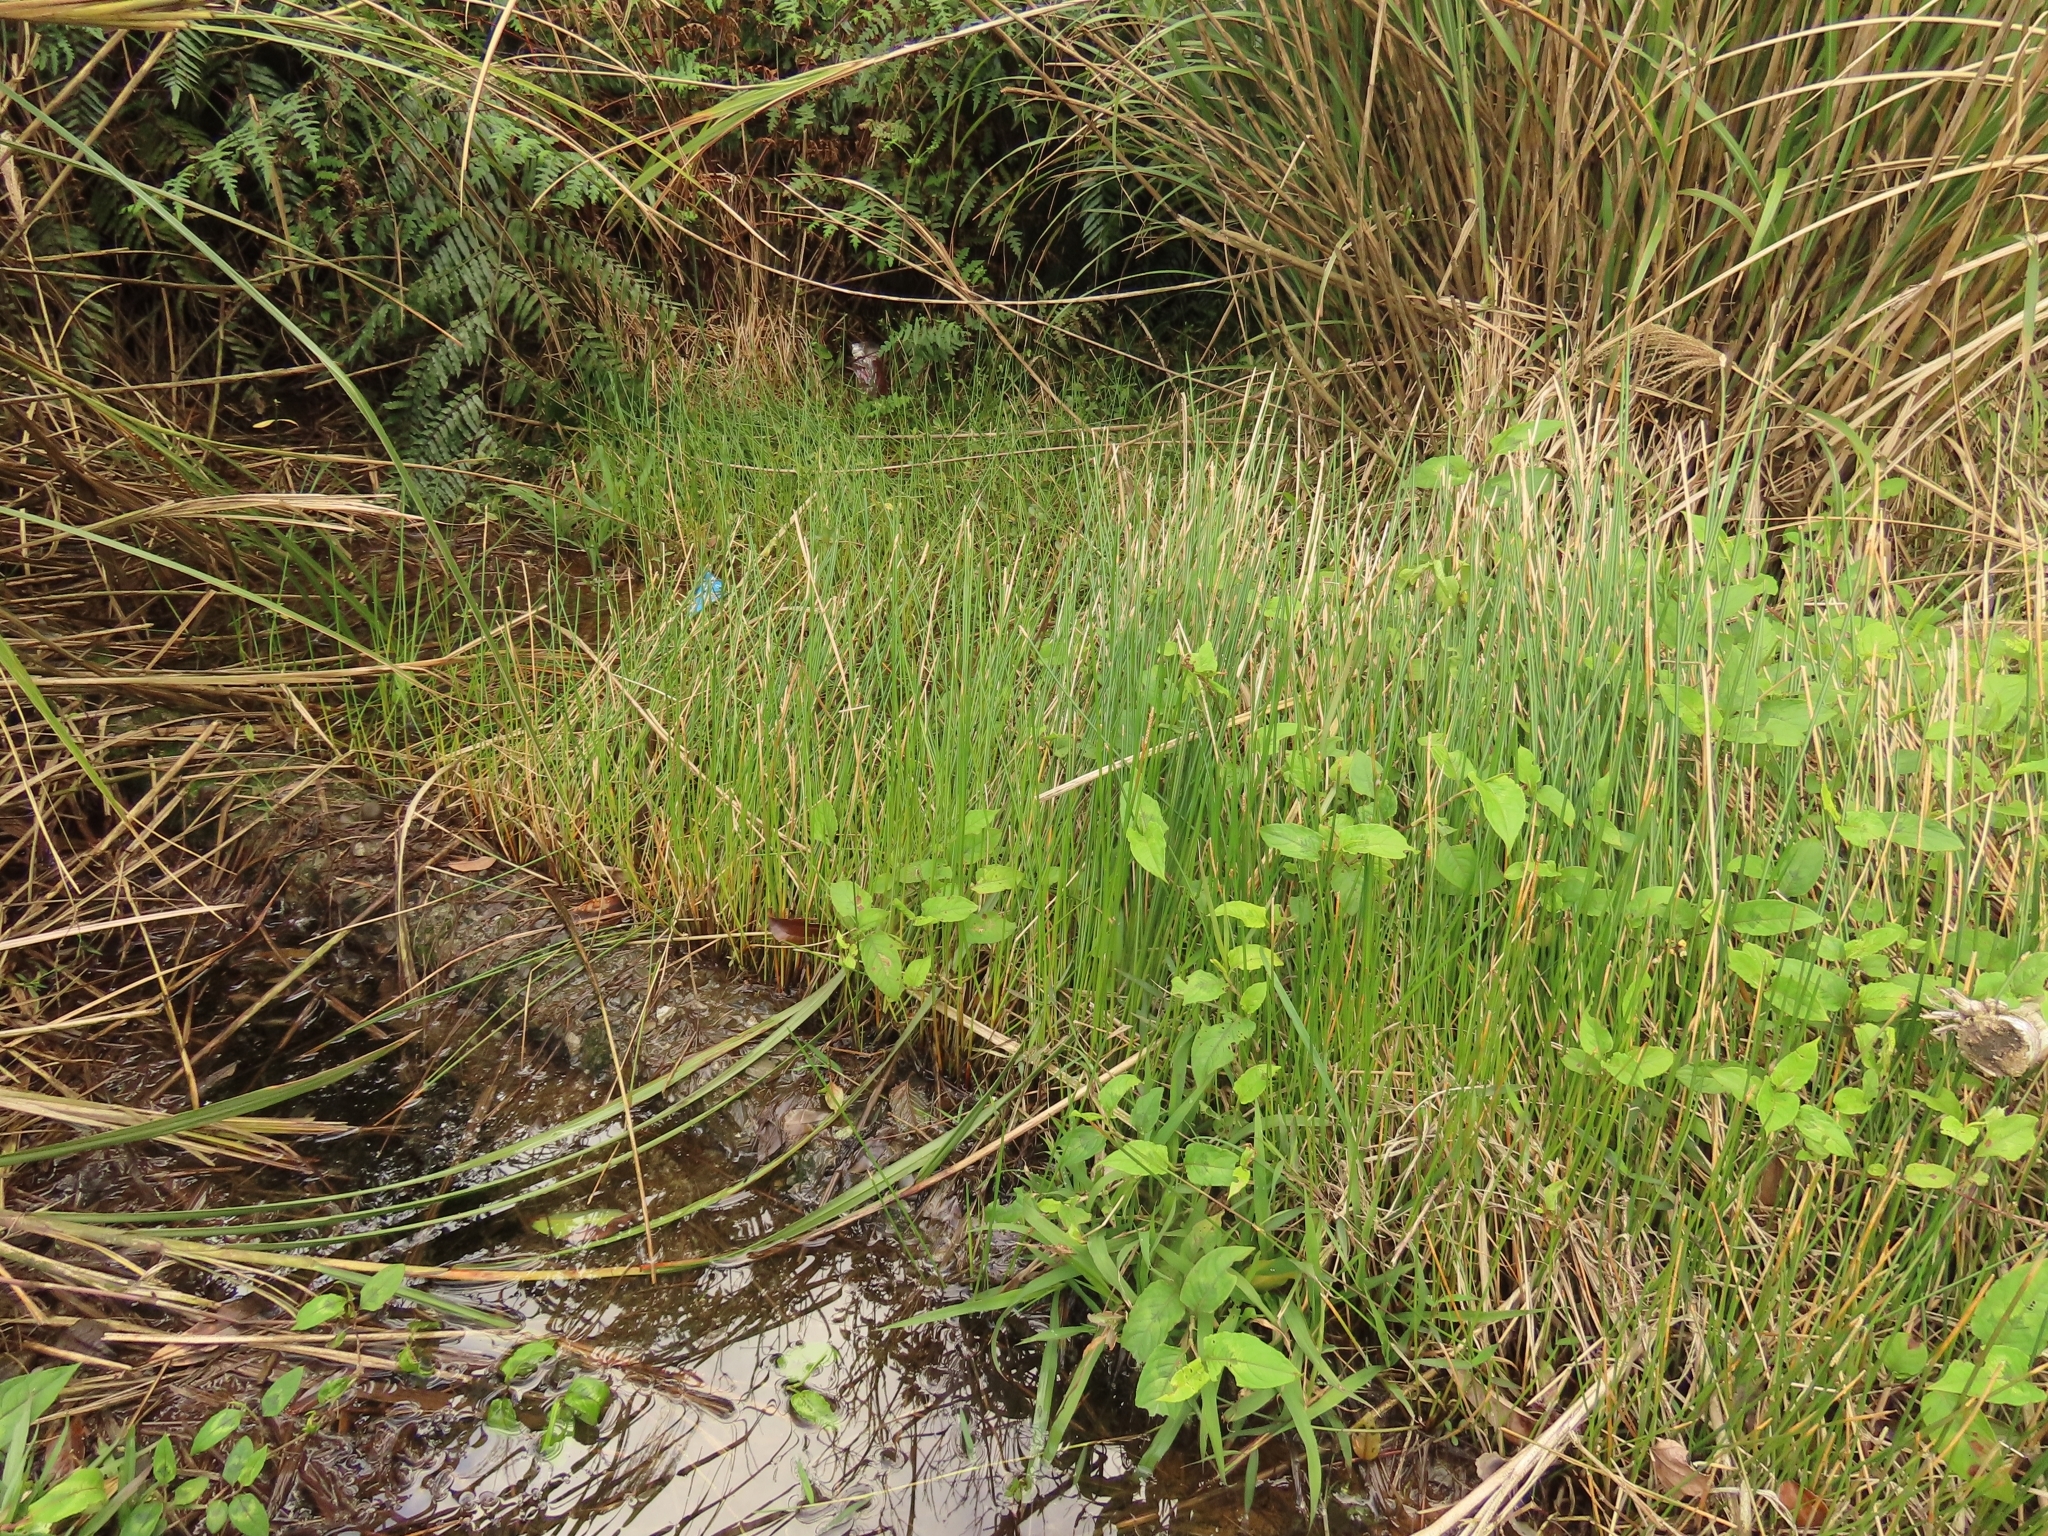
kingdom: Plantae
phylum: Tracheophyta
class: Liliopsida
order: Poales
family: Cyperaceae
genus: Eleocharis
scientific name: Eleocharis dulcis
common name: Chinese water chestnut
